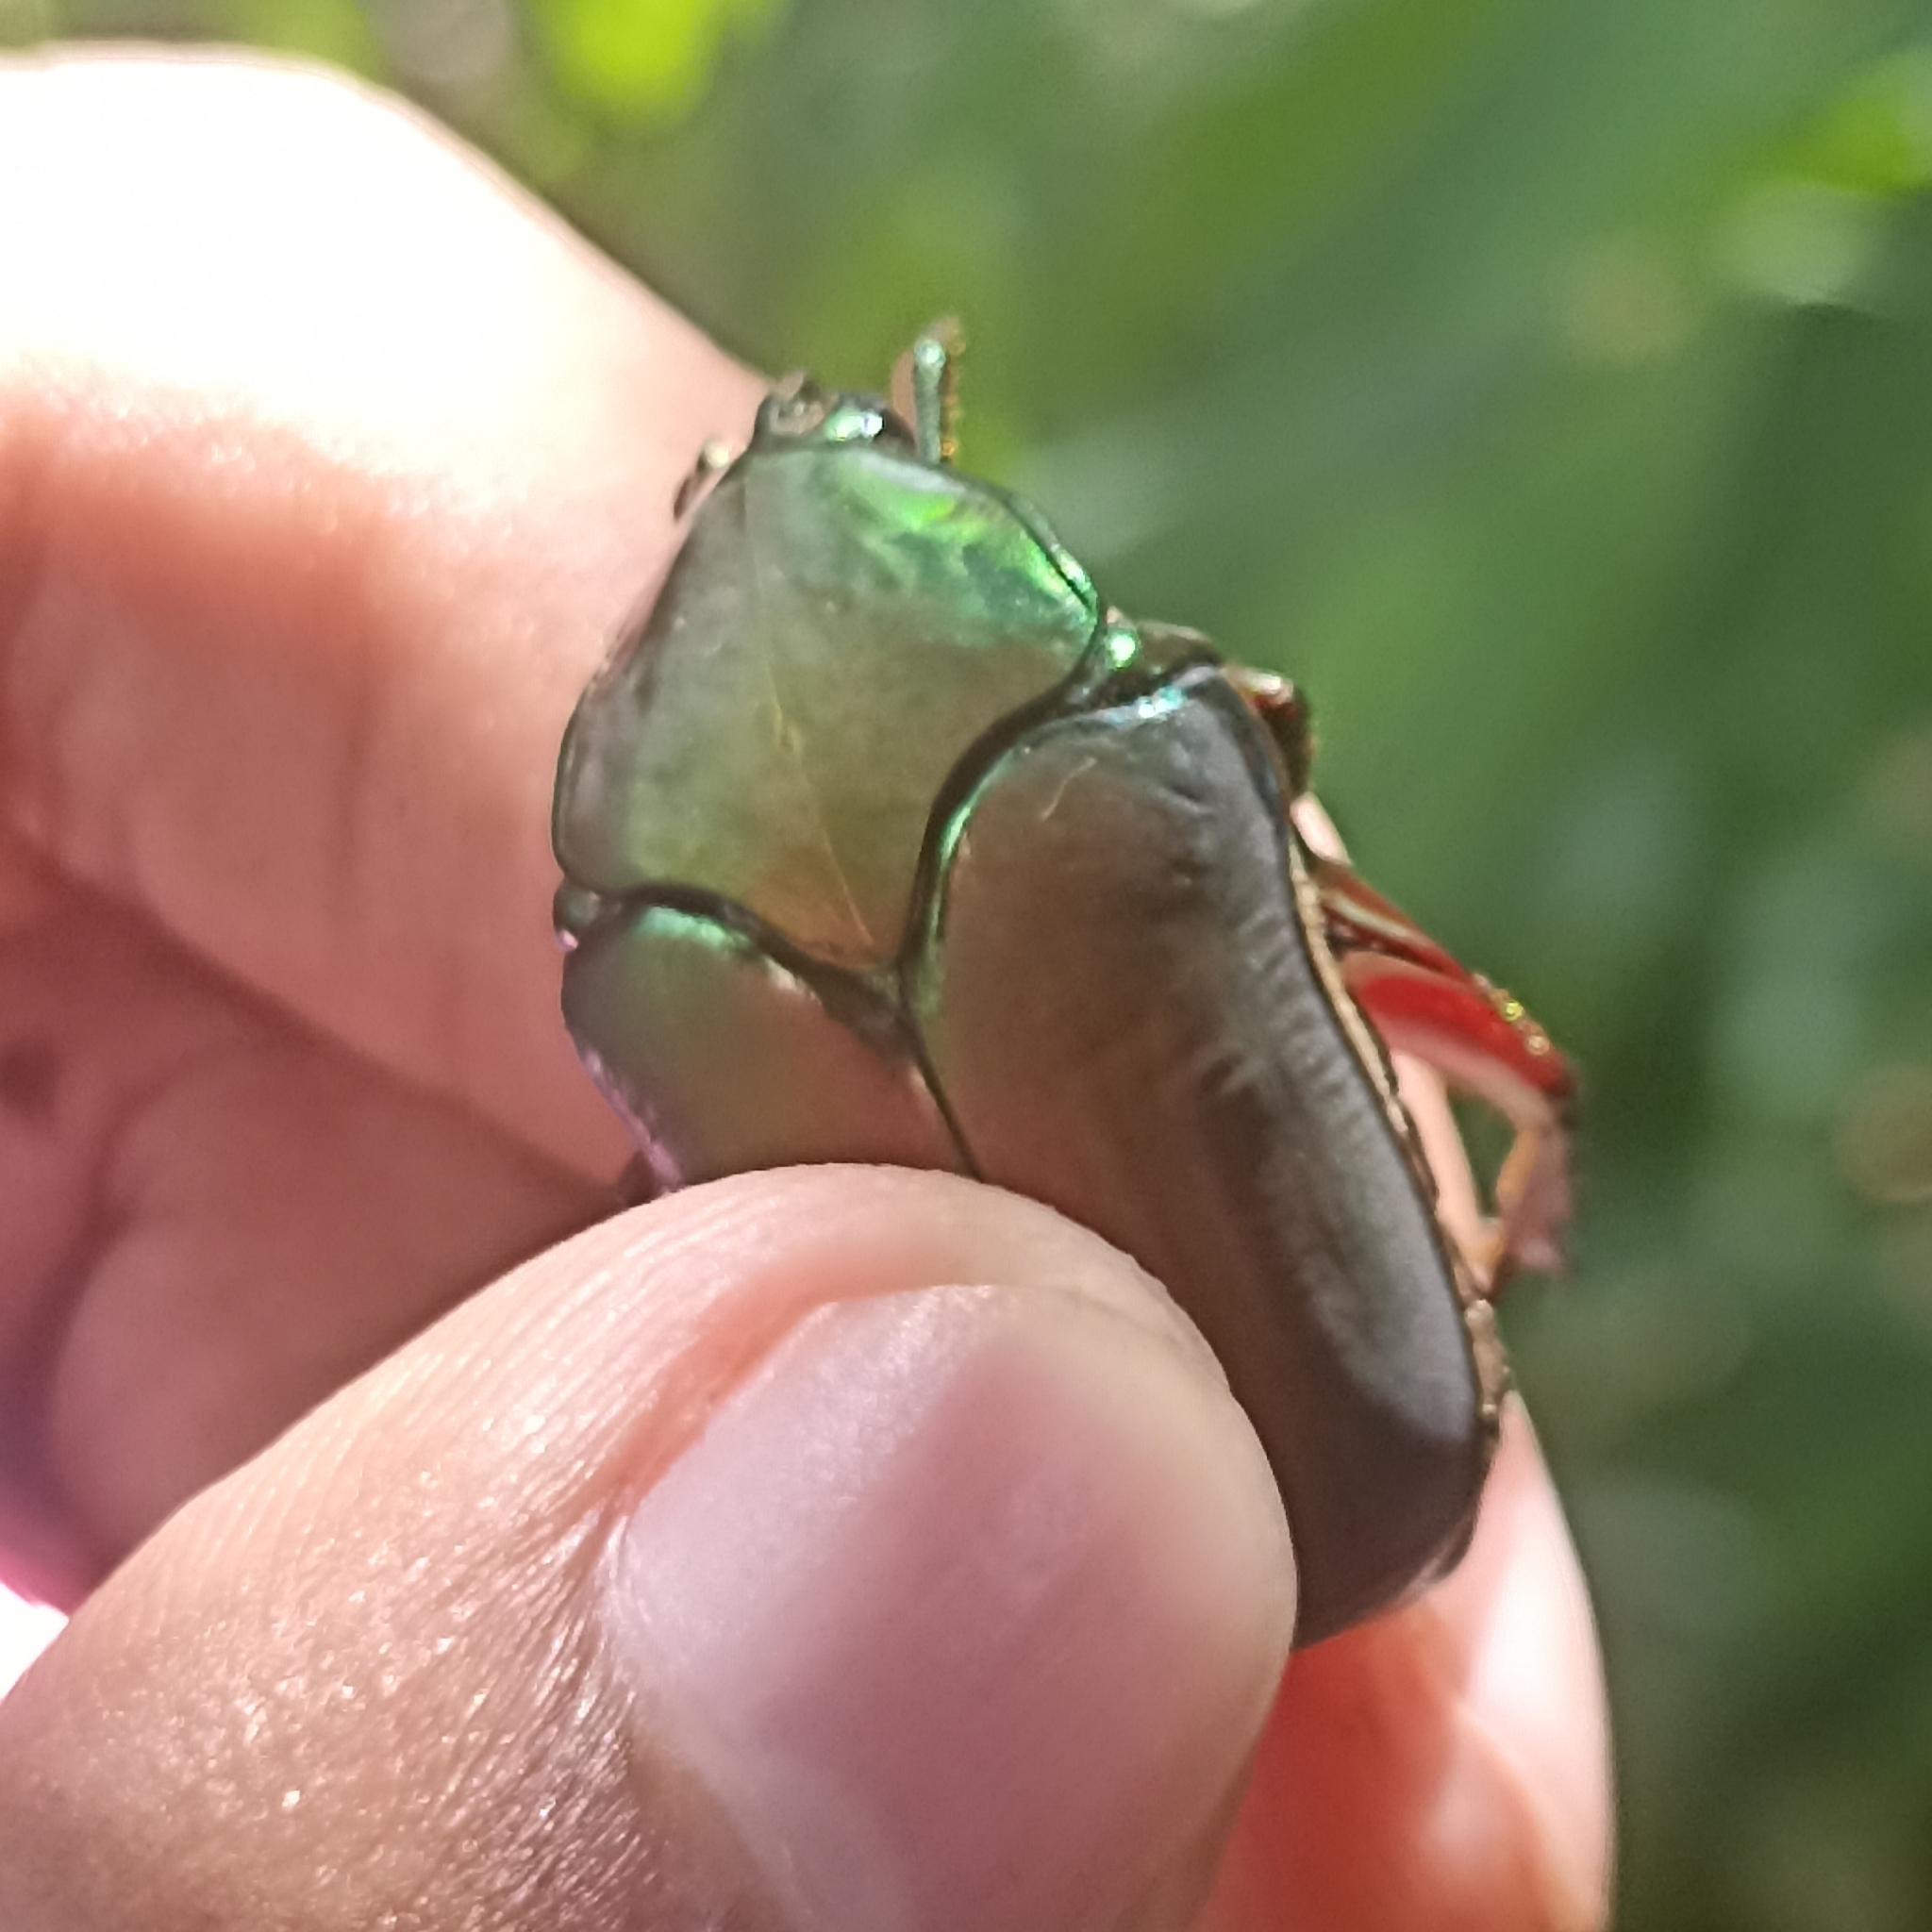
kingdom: Animalia
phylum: Arthropoda
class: Insecta
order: Coleoptera
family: Scarabaeidae
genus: Cotinis
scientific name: Cotinis mutabilis
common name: Figeater beetle
